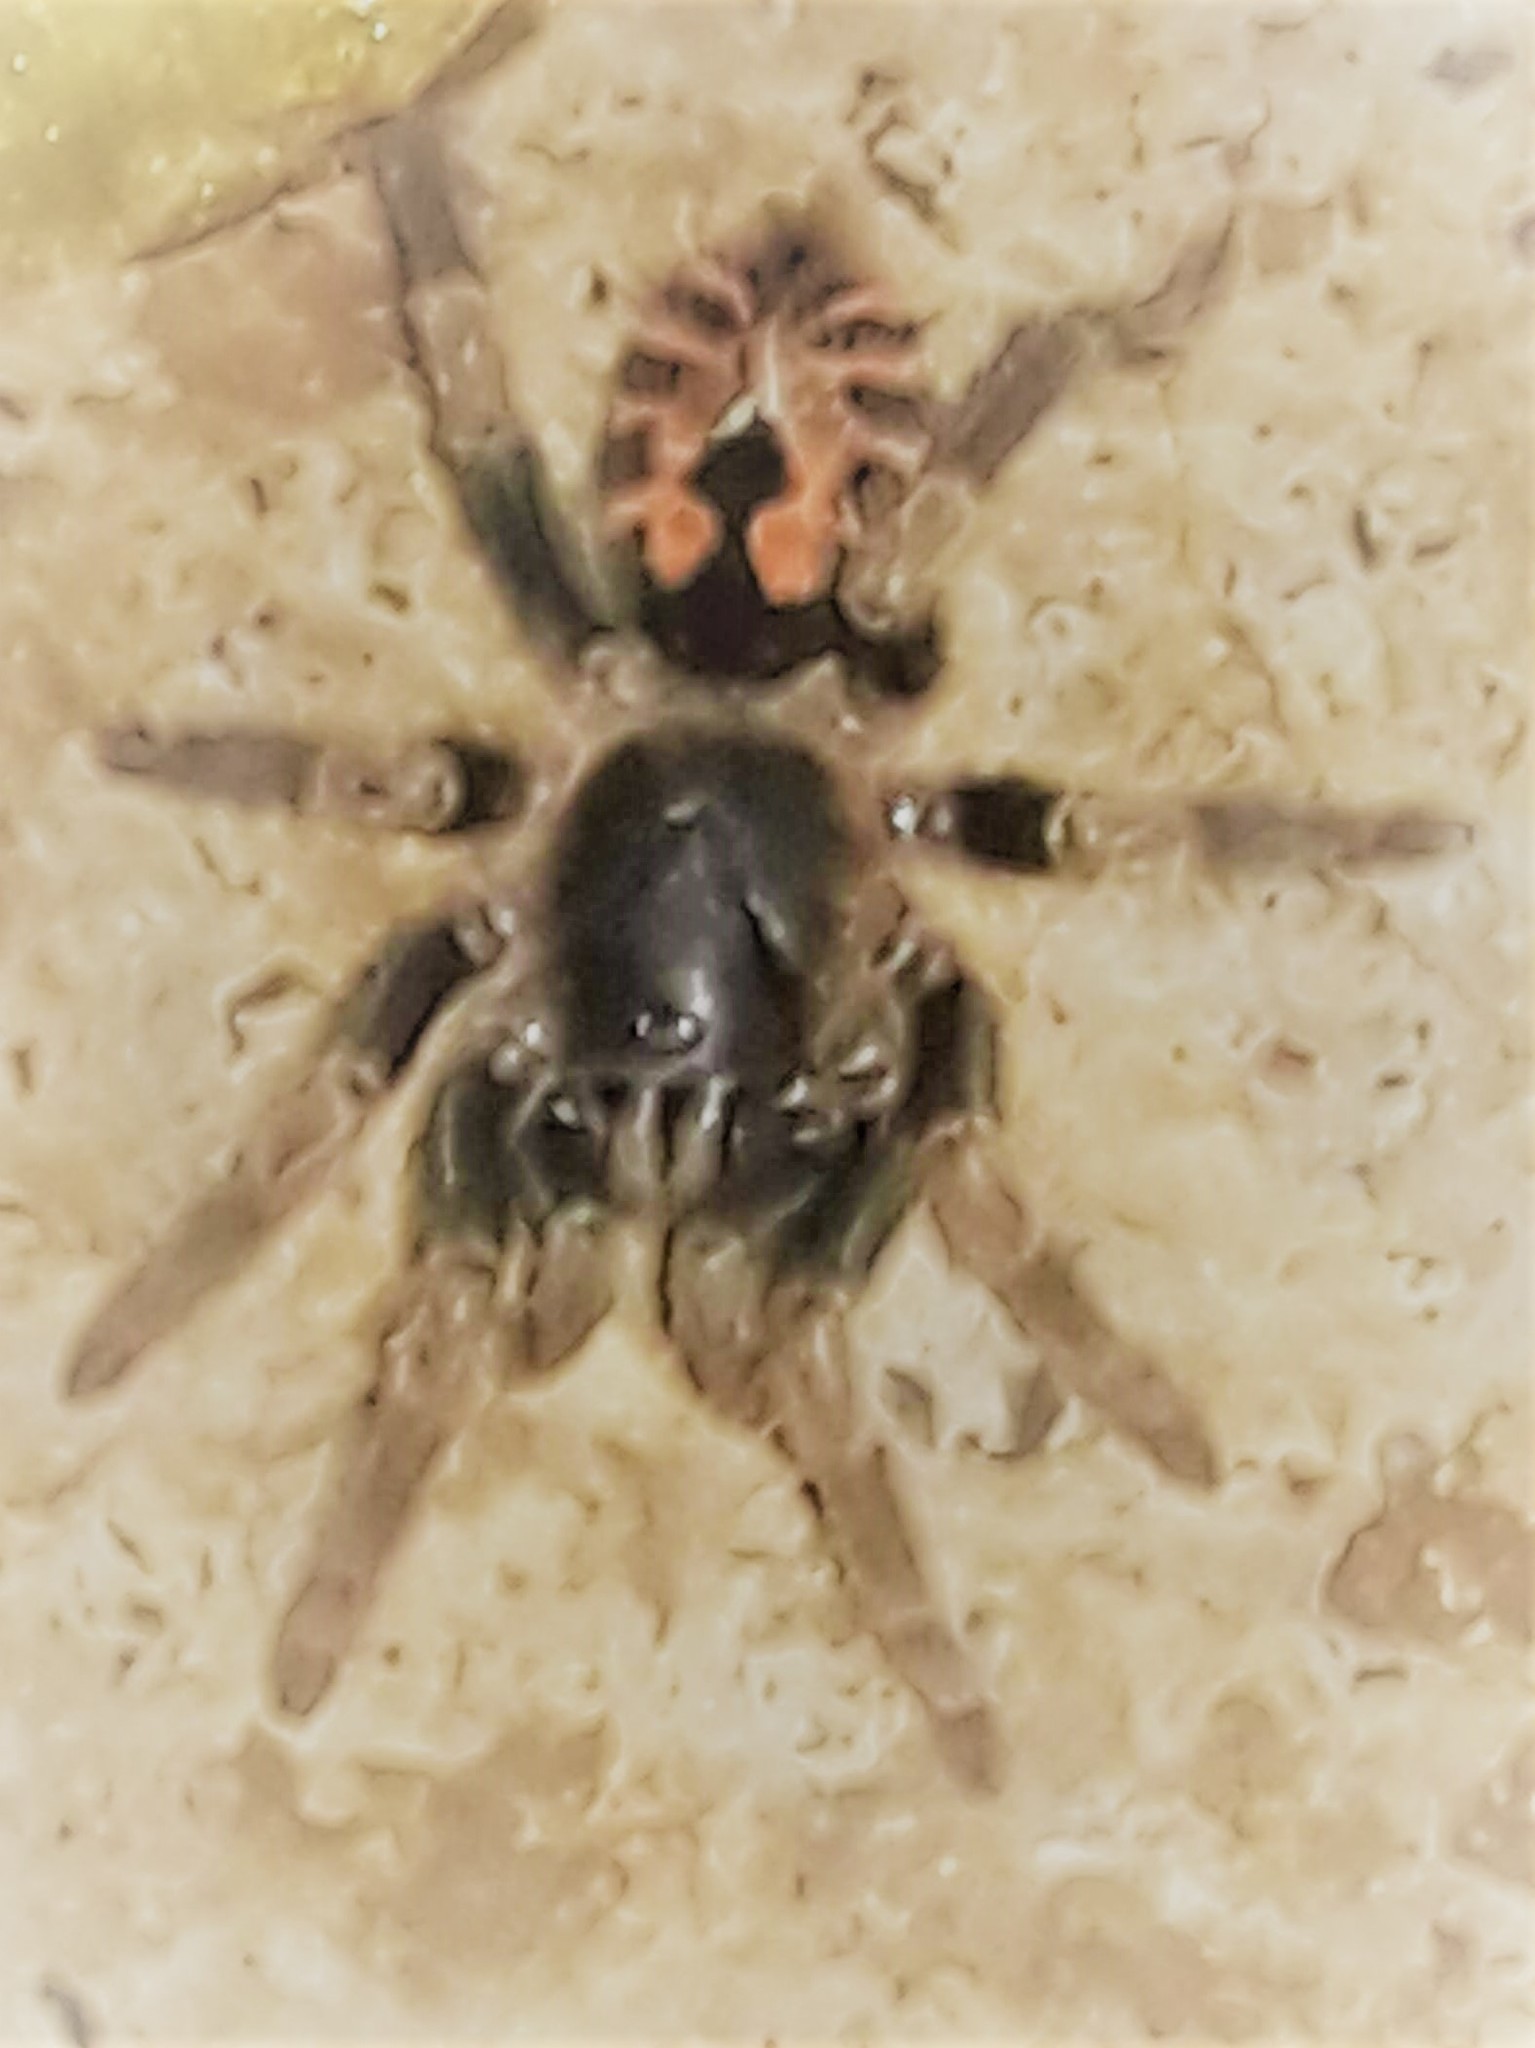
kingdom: Animalia
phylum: Arthropoda
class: Arachnida
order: Araneae
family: Theraphosidae
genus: Davus
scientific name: Davus fasciatus
